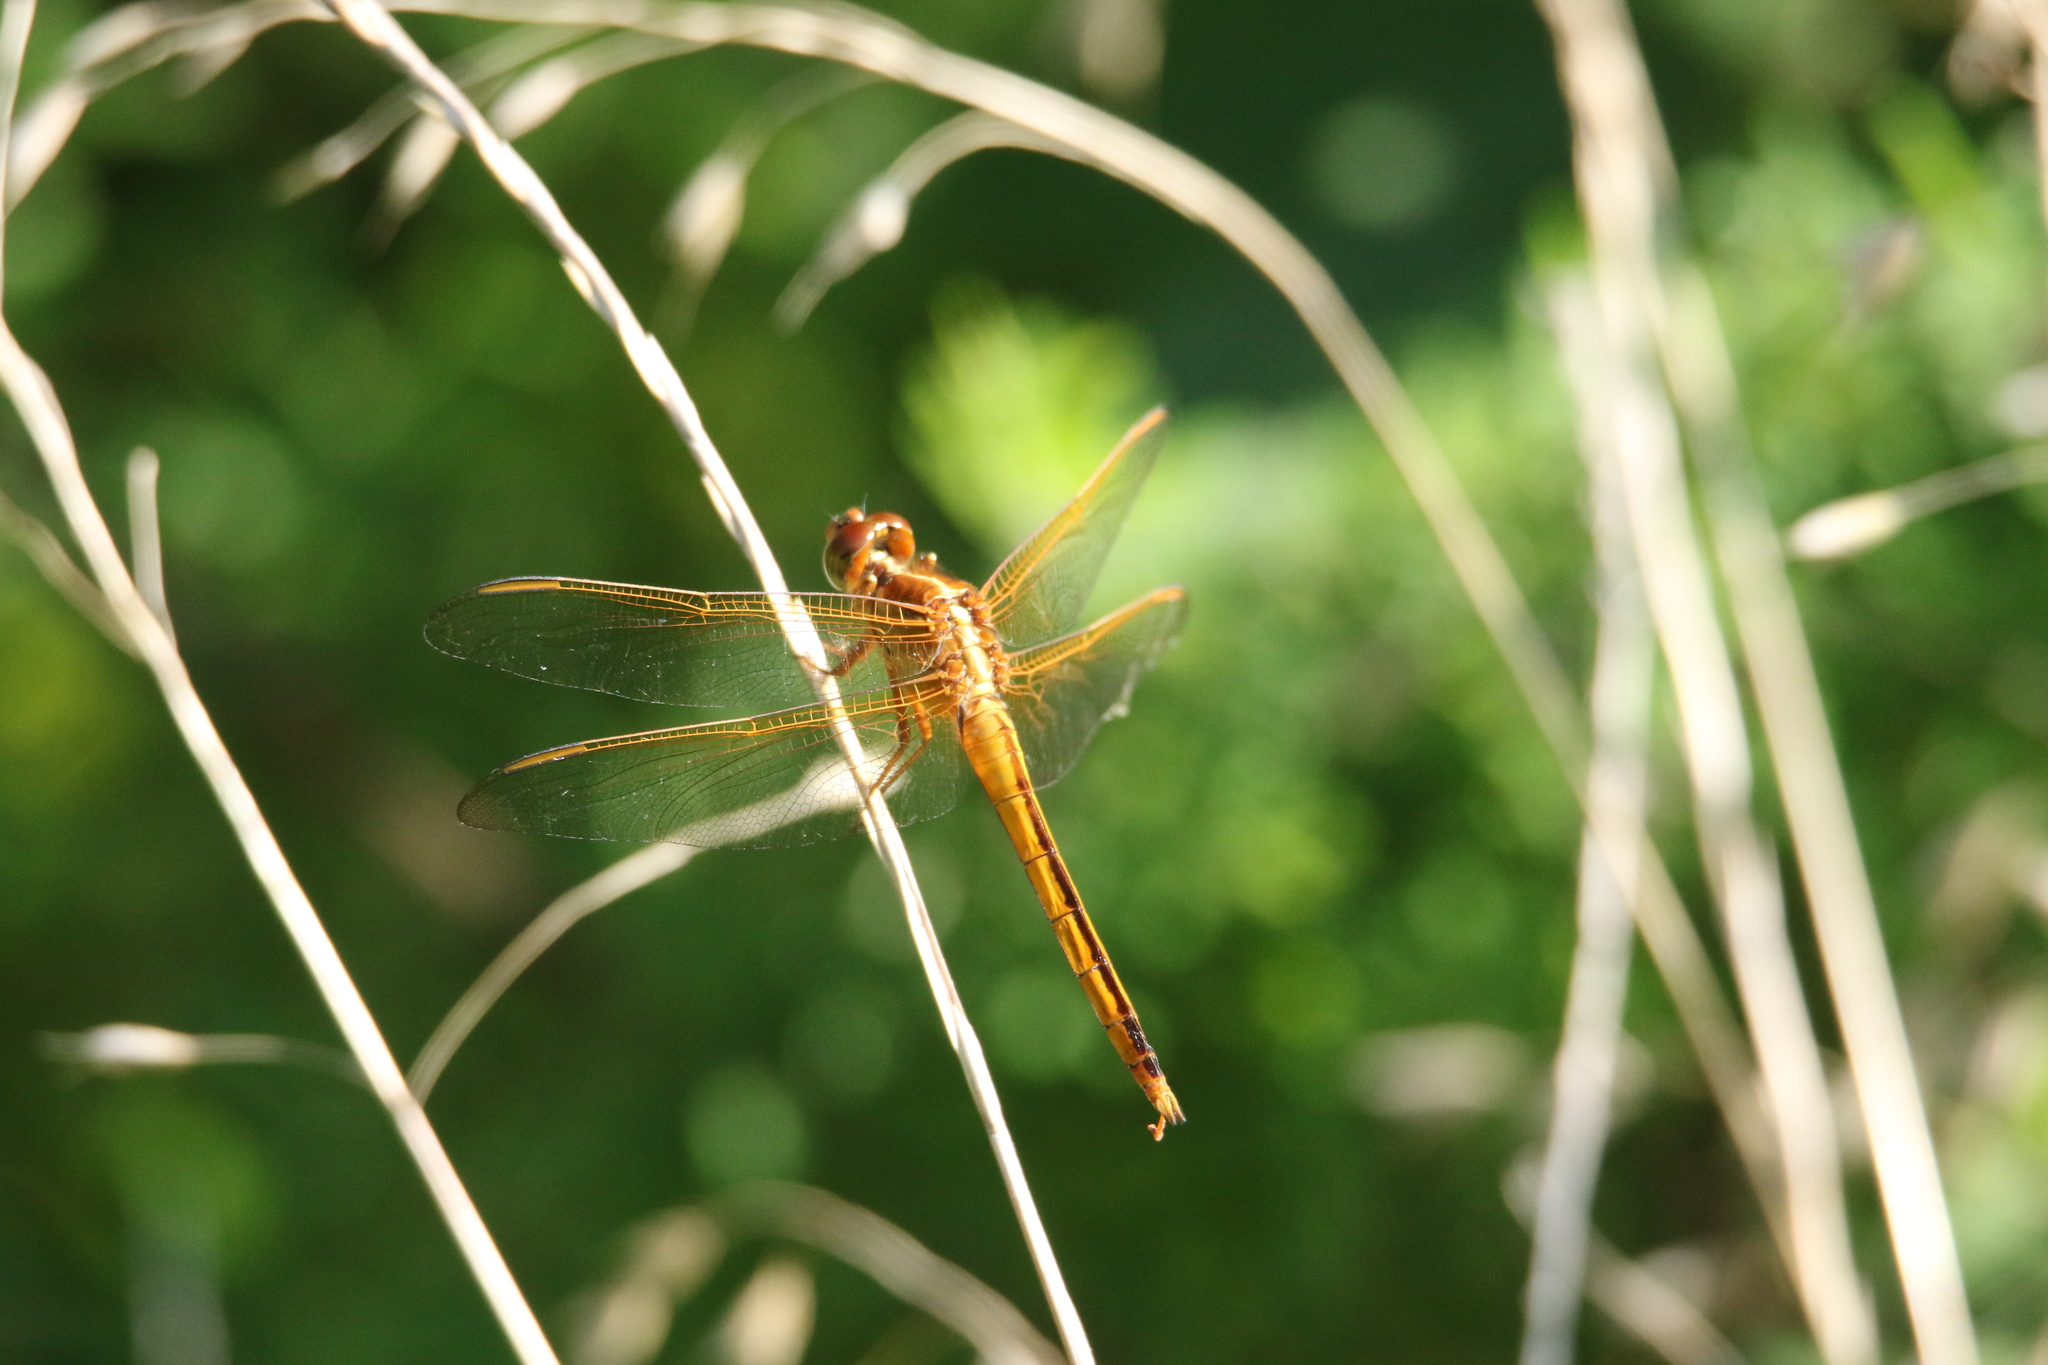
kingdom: Animalia
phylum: Arthropoda
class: Insecta
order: Odonata
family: Libellulidae
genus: Libellula
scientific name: Libellula needhami
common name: Needham's skimmer
